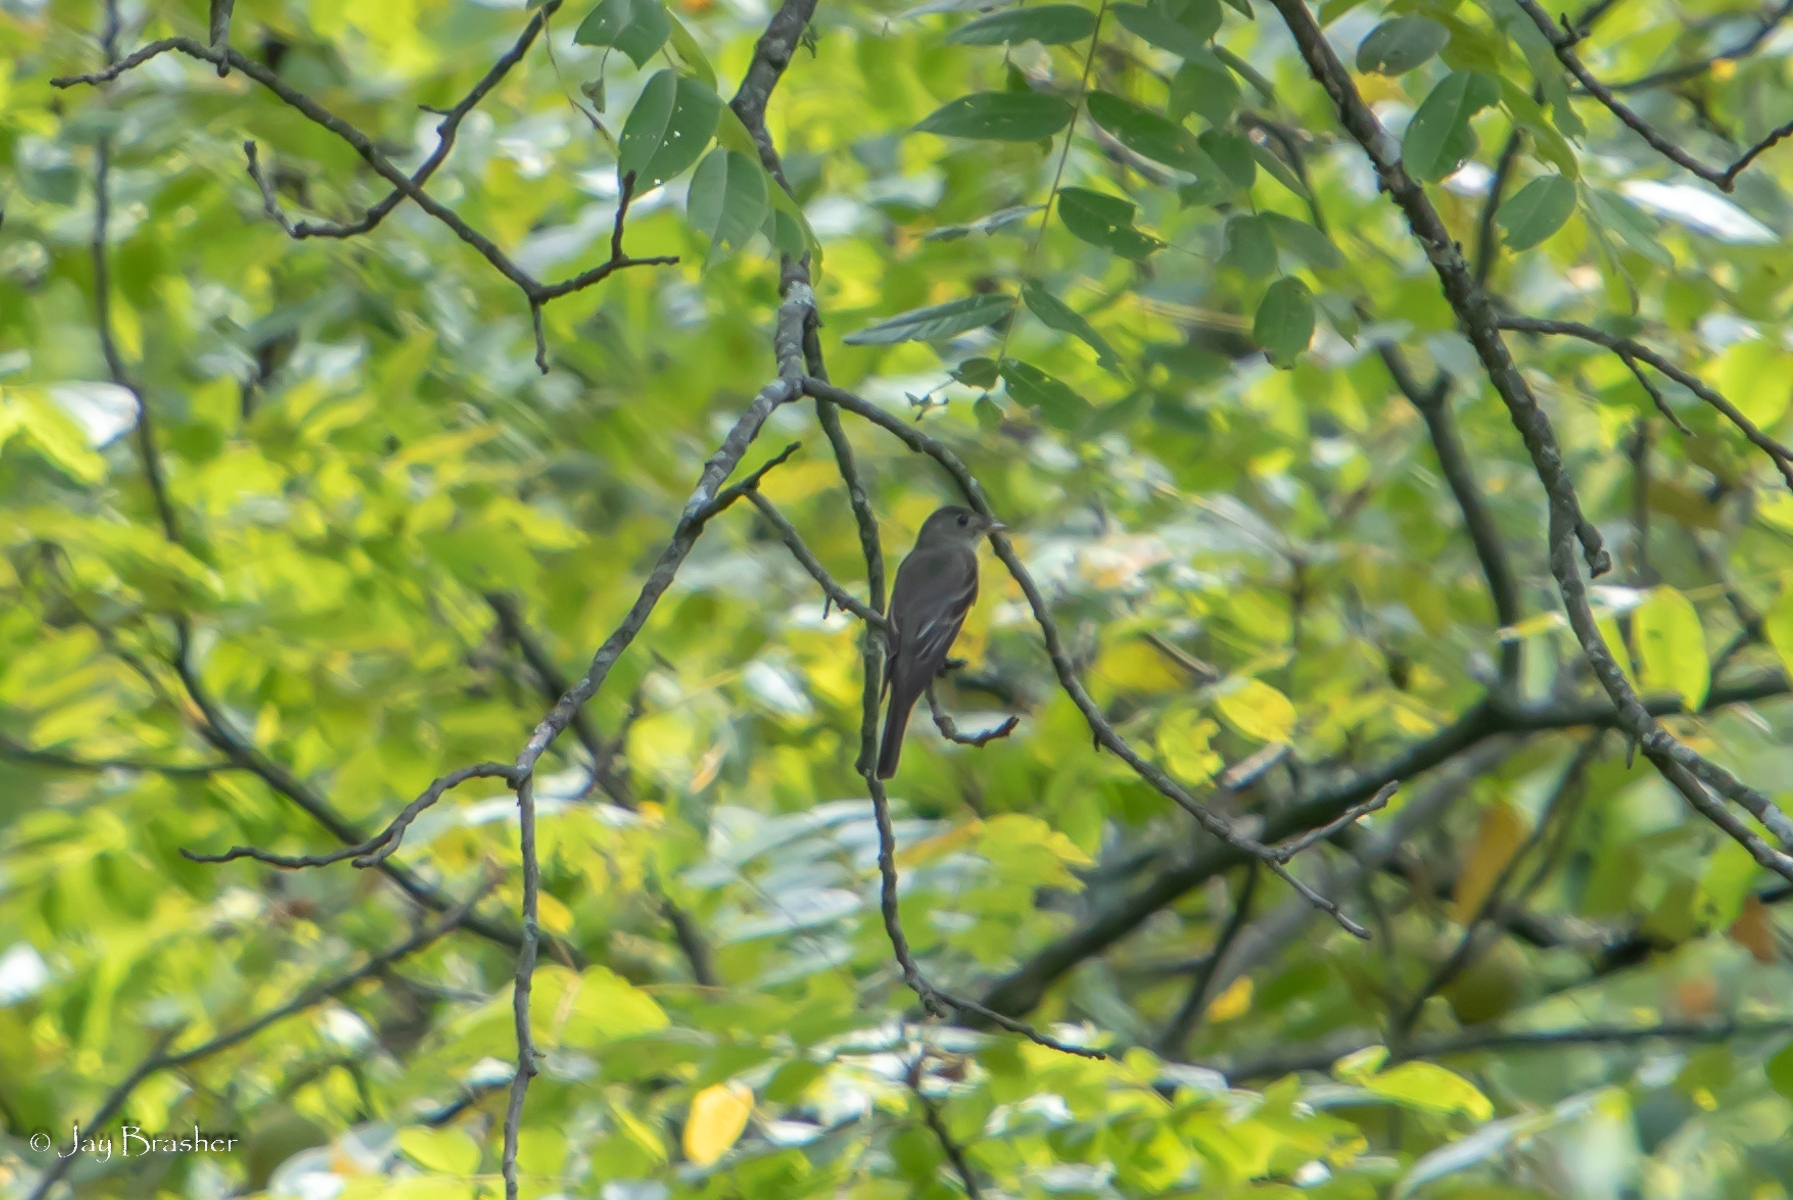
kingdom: Animalia
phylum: Chordata
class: Aves
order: Passeriformes
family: Tyrannidae
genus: Contopus
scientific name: Contopus virens
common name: Eastern wood-pewee
